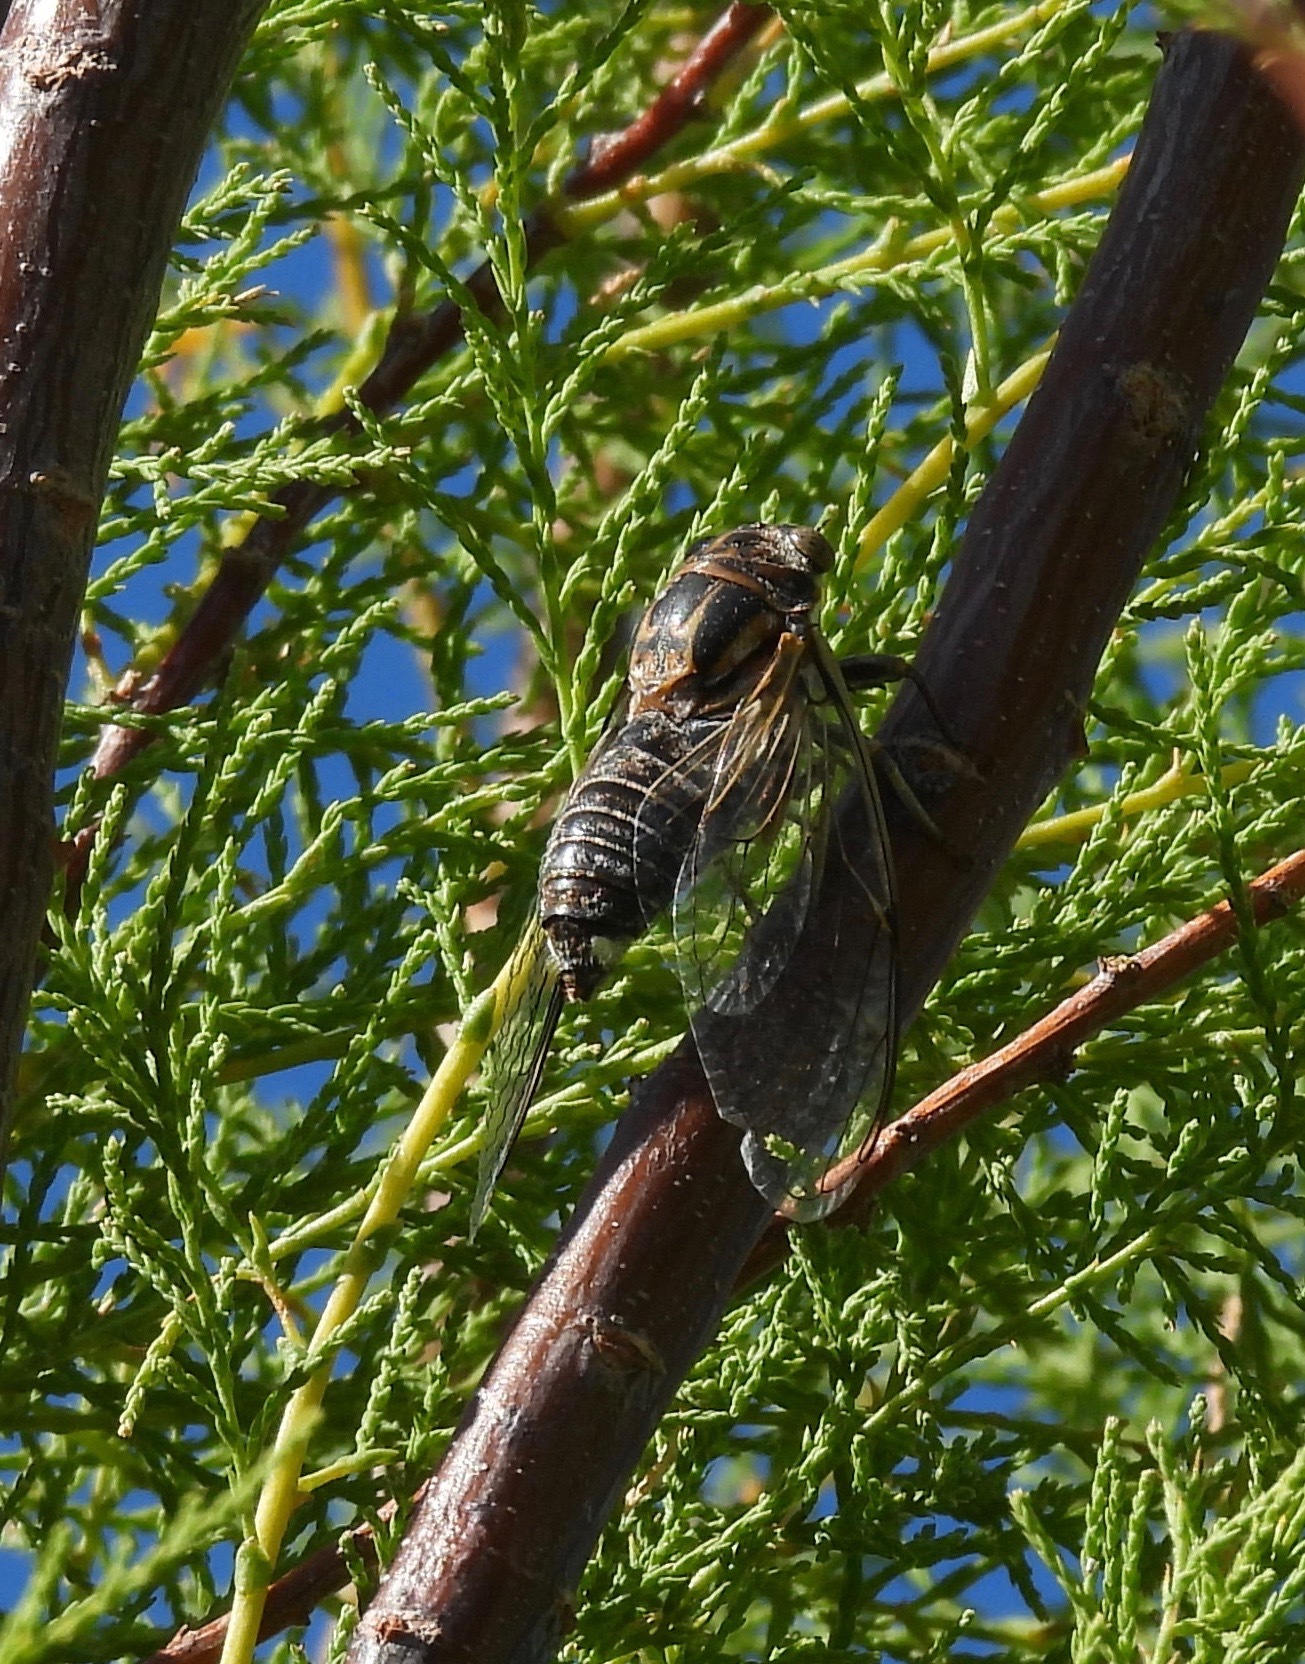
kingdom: Animalia
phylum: Arthropoda
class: Insecta
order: Hemiptera
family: Cicadidae
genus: Diceroprocta
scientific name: Diceroprocta eugraphica
